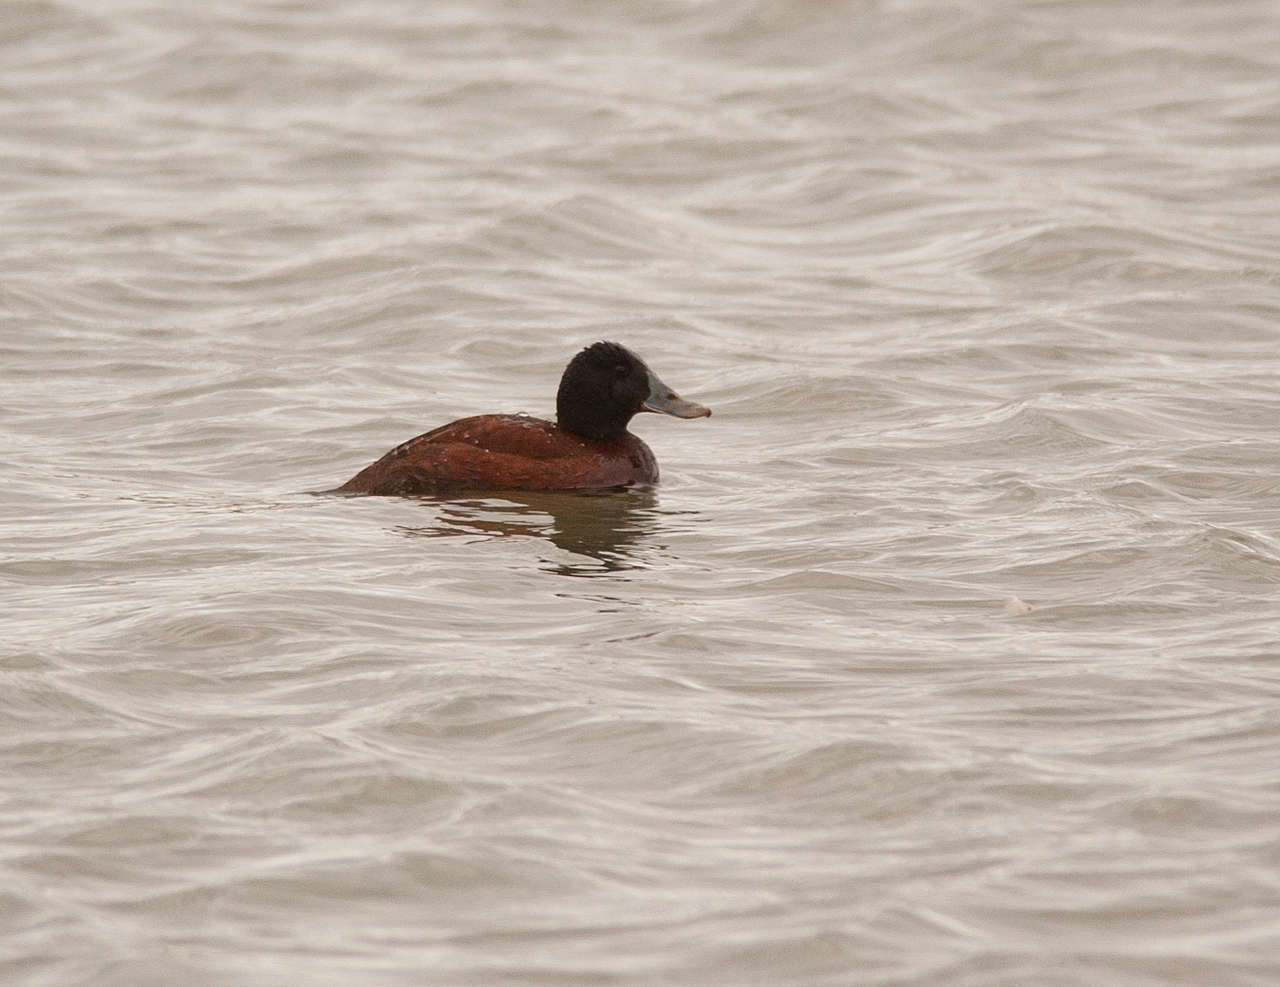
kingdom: Animalia
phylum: Chordata
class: Aves
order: Anseriformes
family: Anatidae
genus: Oxyura
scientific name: Oxyura australis
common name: Blue-billed duck
